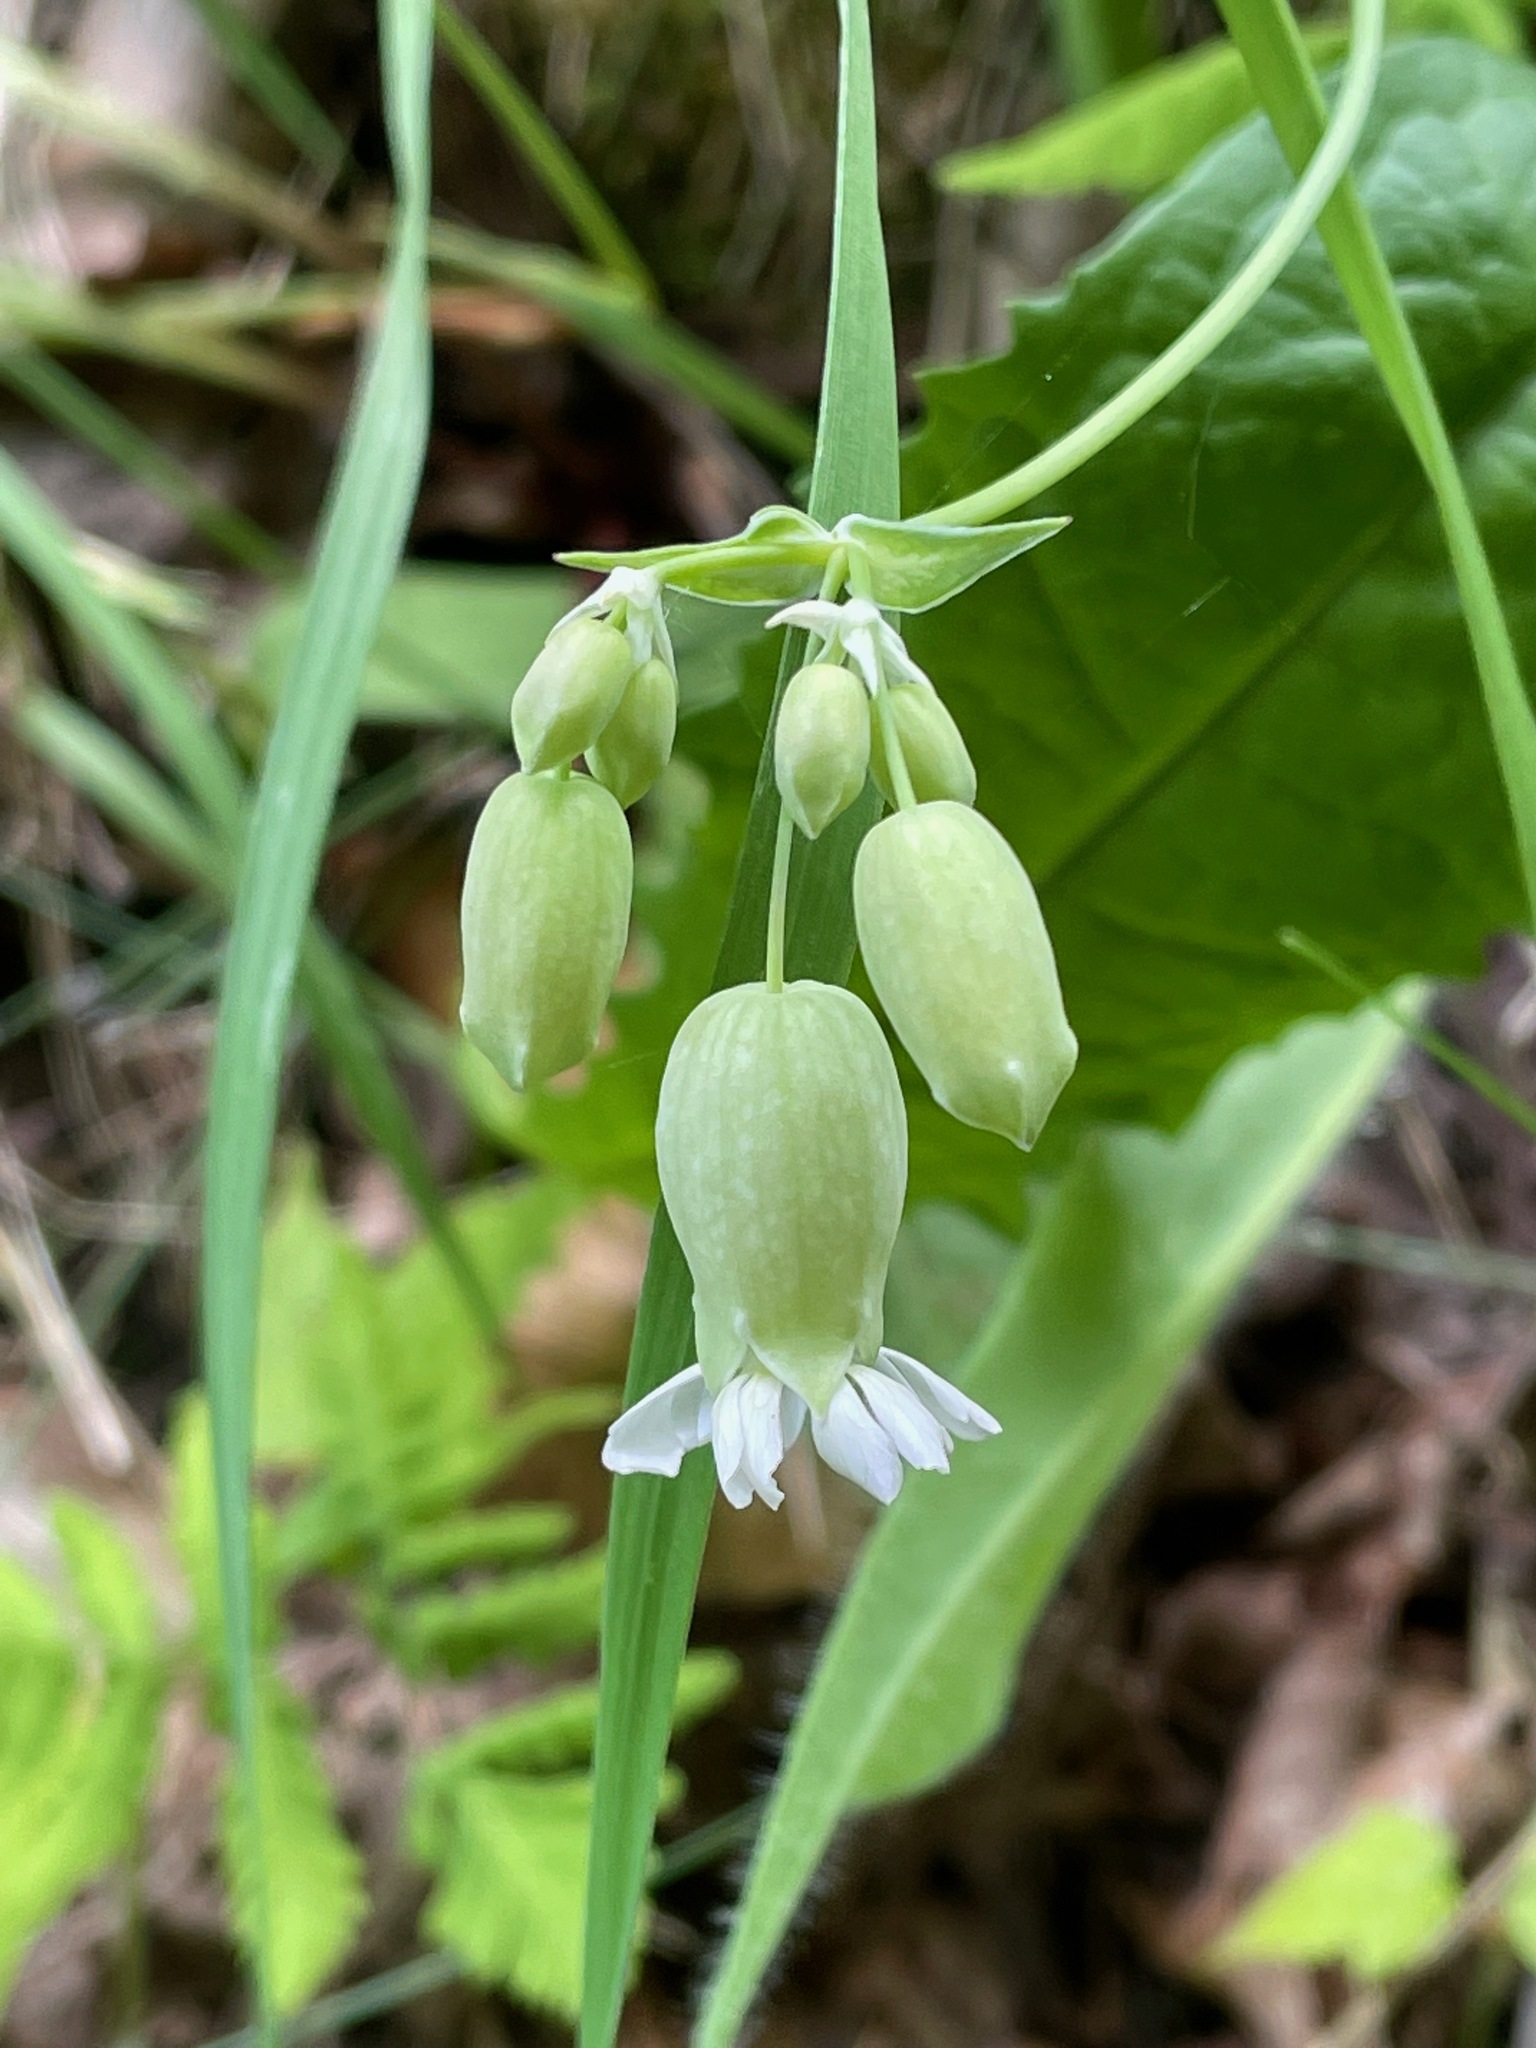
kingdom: Plantae
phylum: Tracheophyta
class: Magnoliopsida
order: Caryophyllales
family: Caryophyllaceae
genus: Silene
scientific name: Silene vulgaris
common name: Bladder campion
